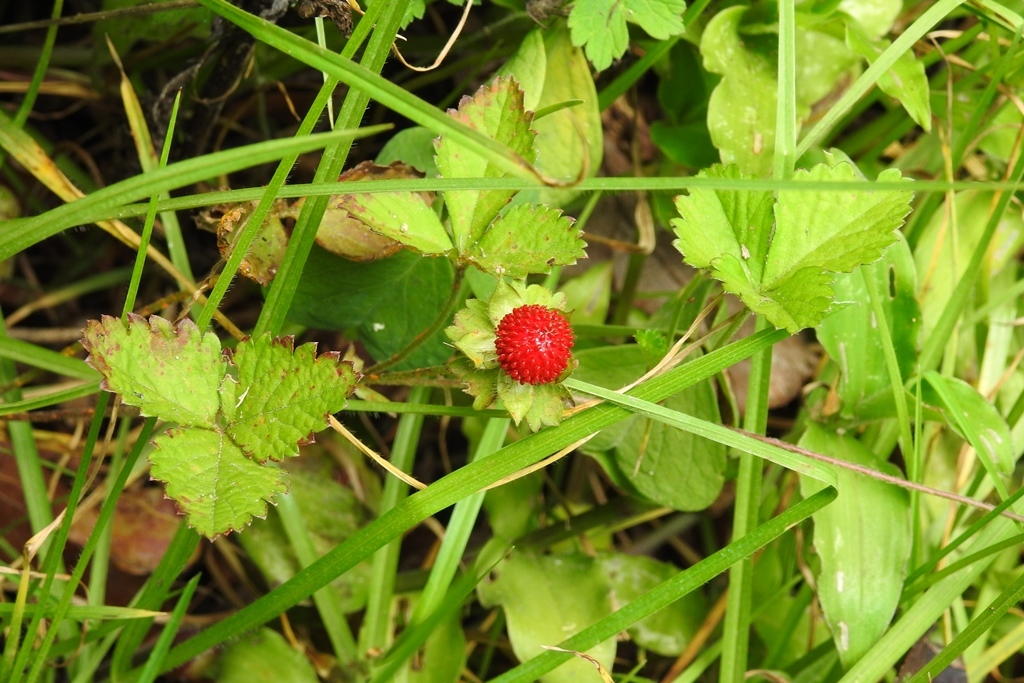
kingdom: Plantae
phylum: Tracheophyta
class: Magnoliopsida
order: Rosales
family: Rosaceae
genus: Potentilla
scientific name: Potentilla indica
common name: Yellow-flowered strawberry
